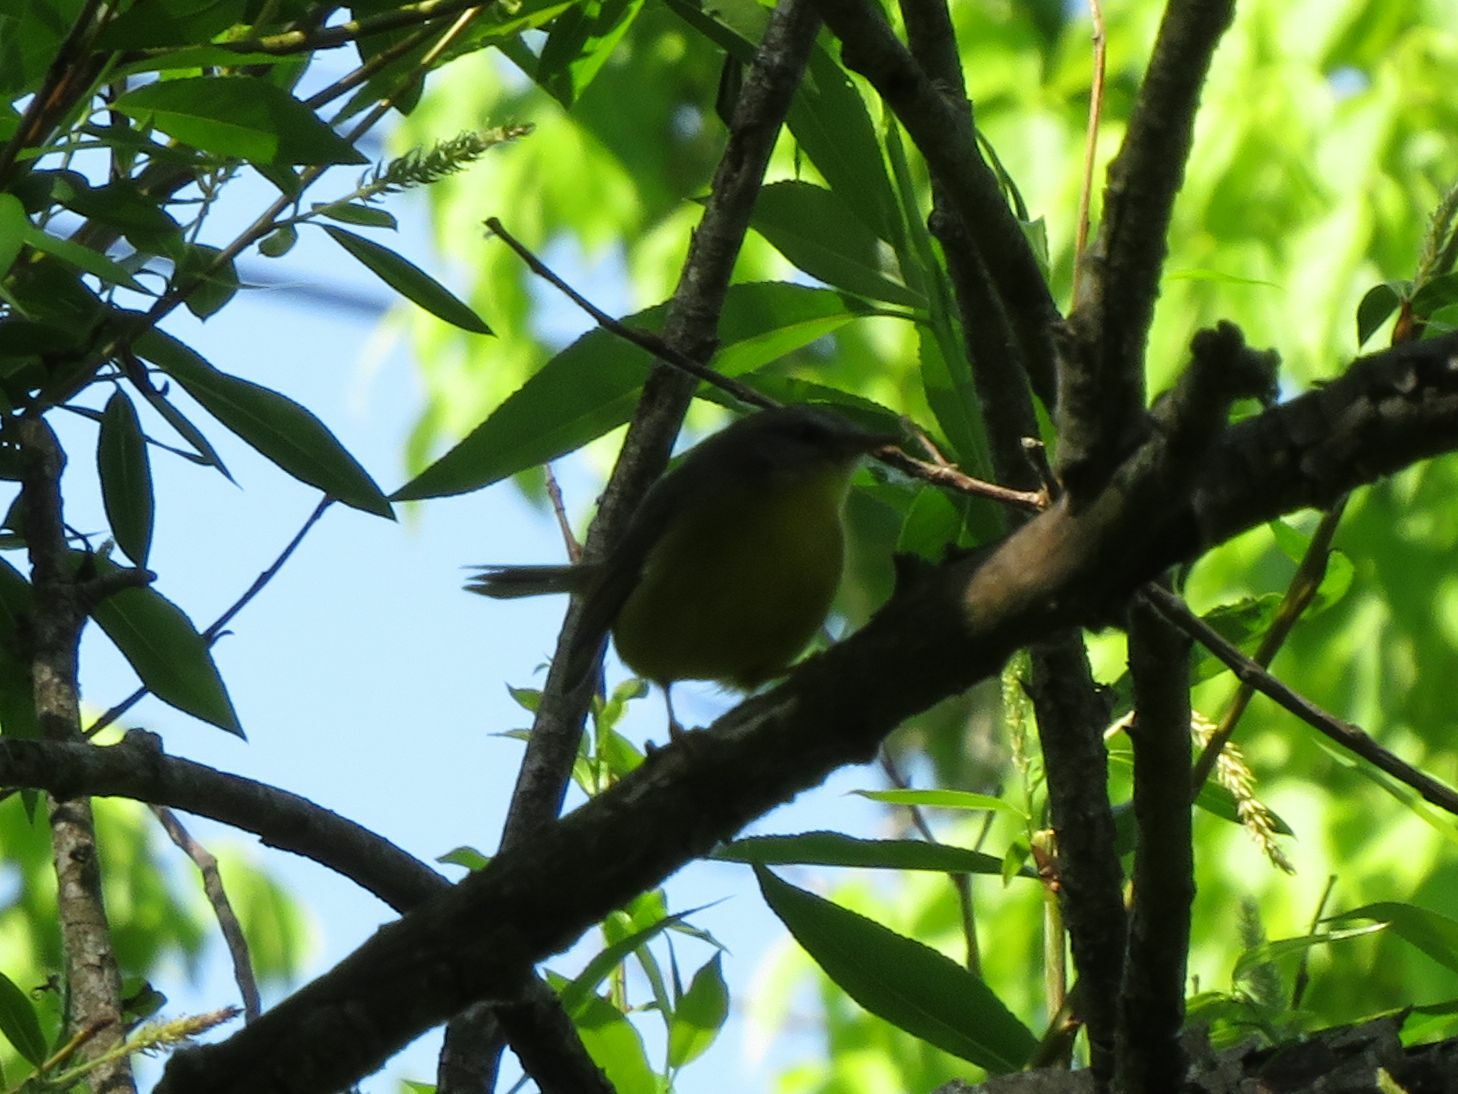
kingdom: Animalia
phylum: Chordata
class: Aves
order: Passeriformes
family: Parulidae
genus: Basileuterus
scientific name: Basileuterus culicivorus
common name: Golden-crowned warbler
